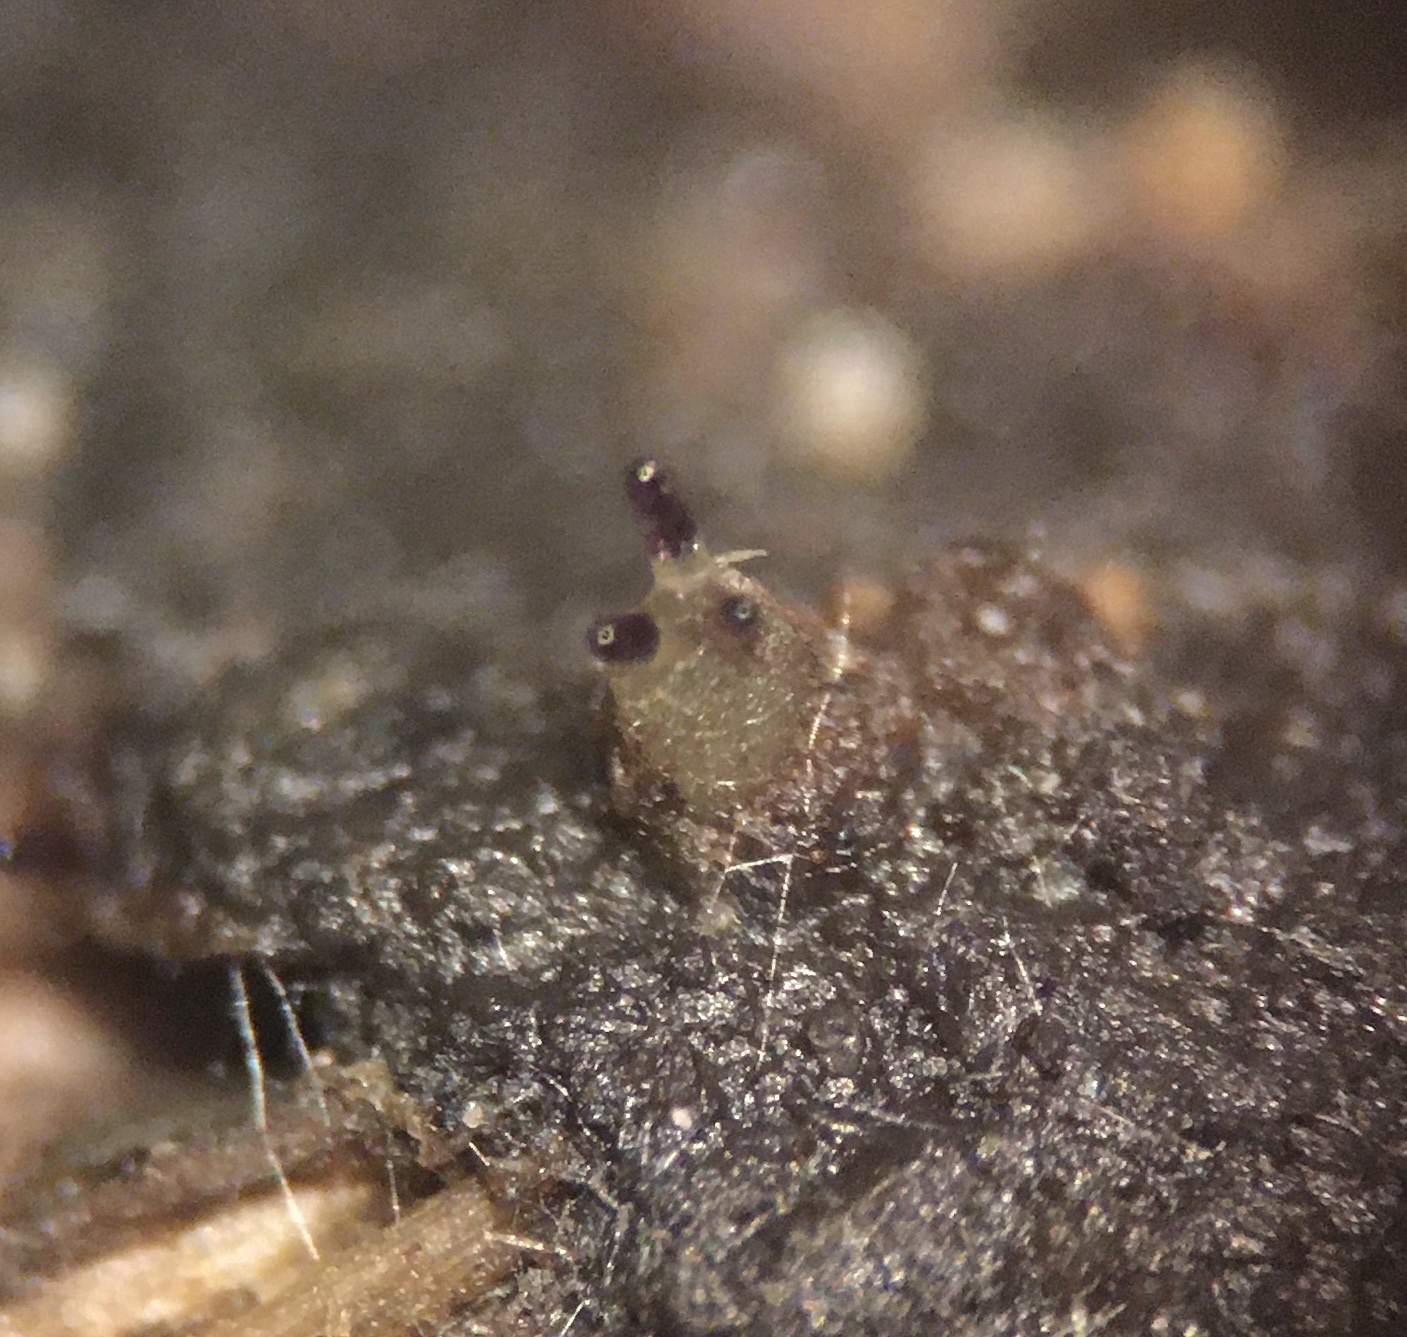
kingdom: Fungi
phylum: Ascomycota
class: Pezizomycetes
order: Pezizales
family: Ascobolaceae
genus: Ascobolus
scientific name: Ascobolus immersus
